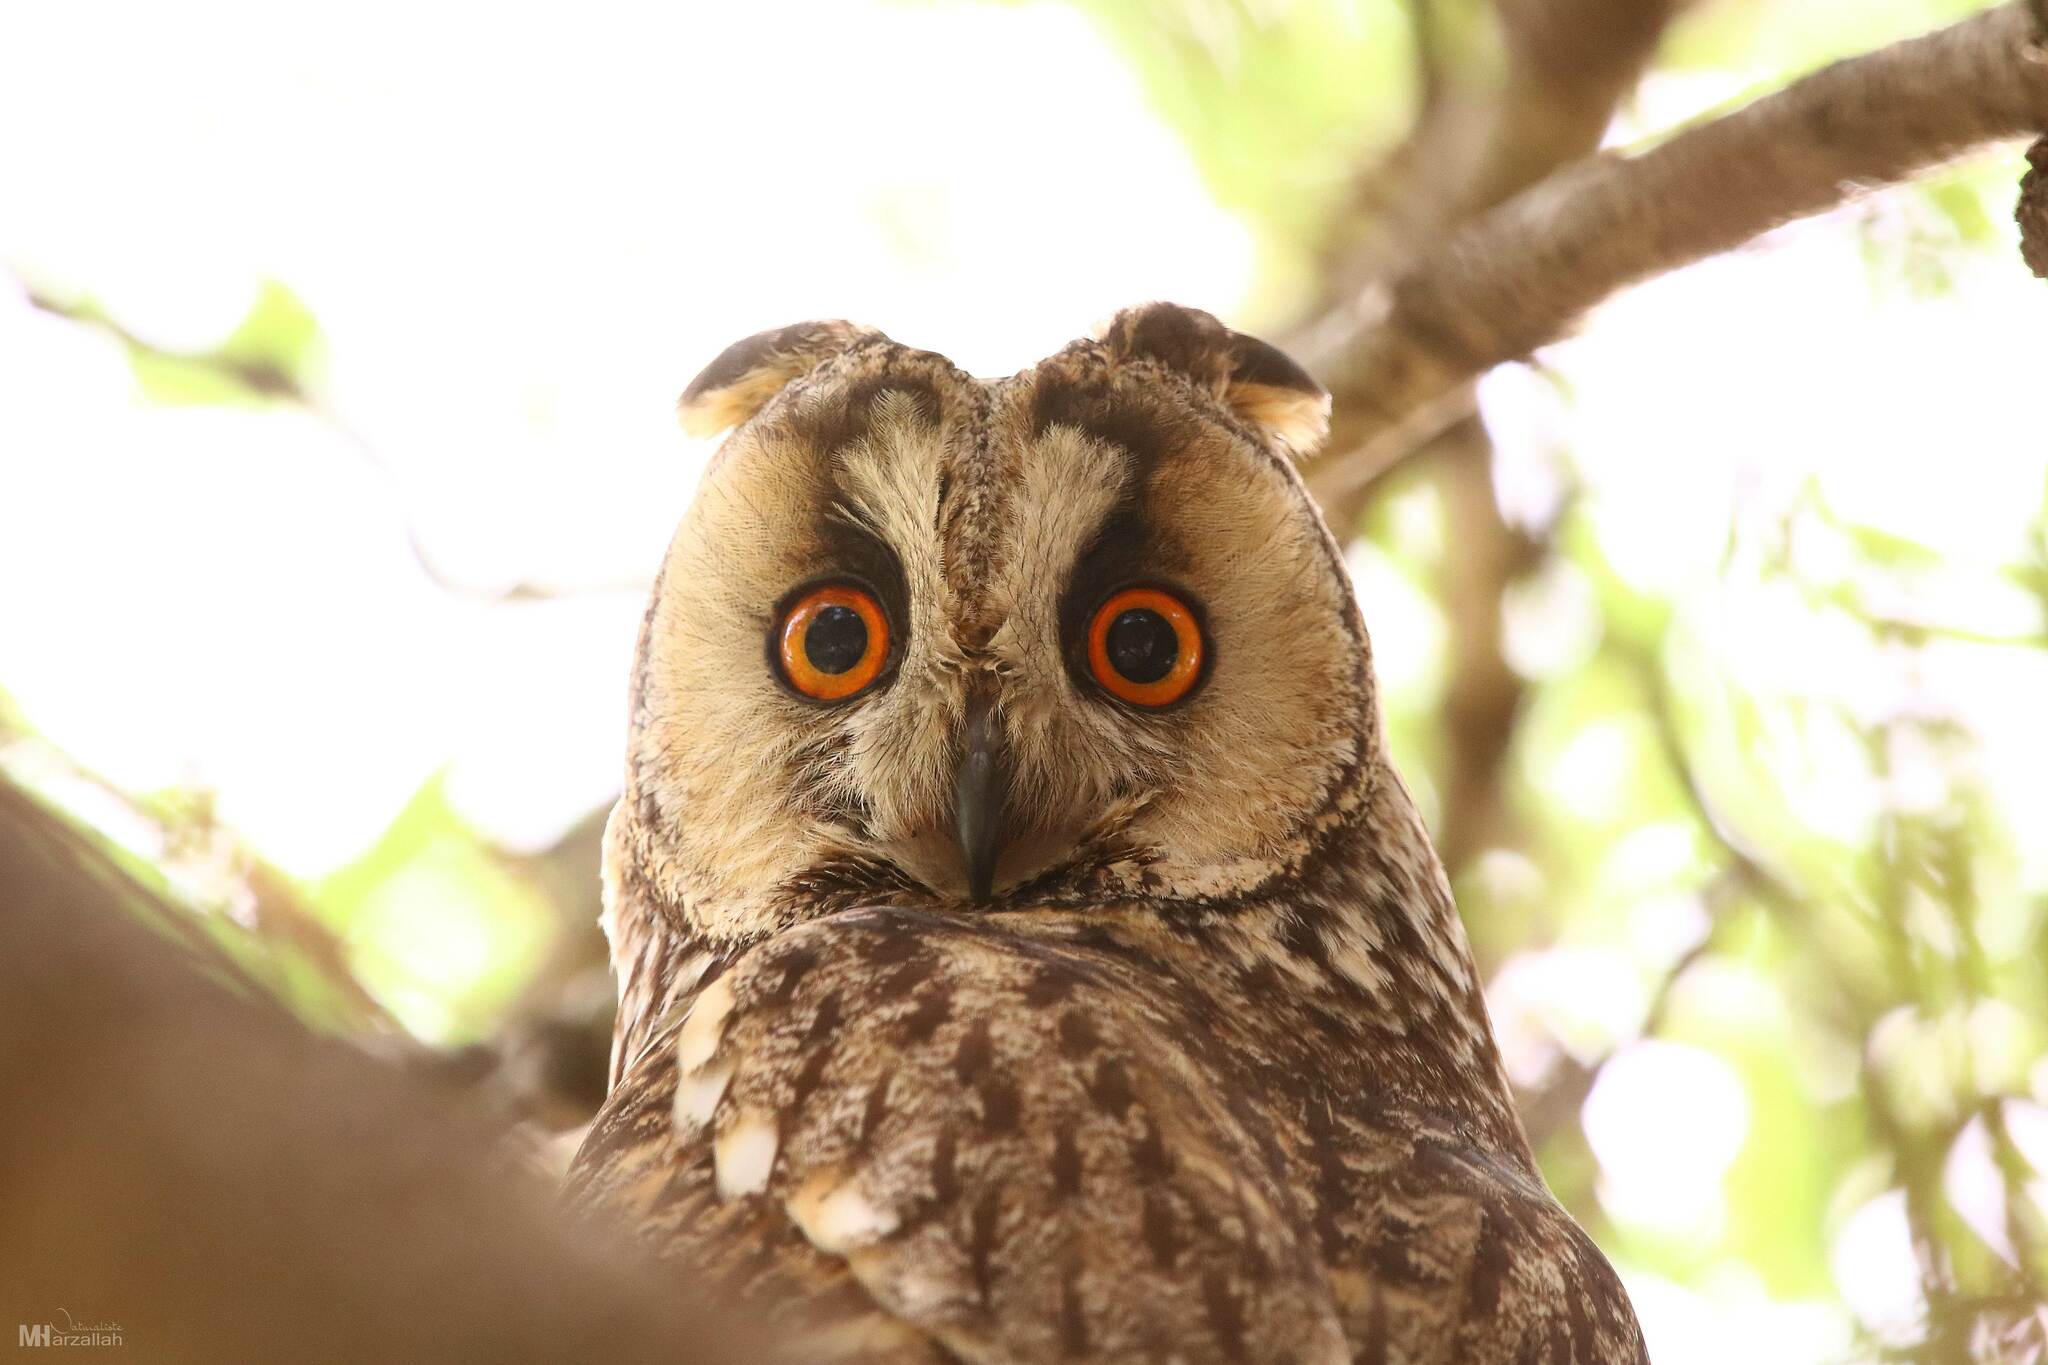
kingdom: Animalia
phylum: Chordata
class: Aves
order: Strigiformes
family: Strigidae
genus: Asio
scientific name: Asio otus
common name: Long-eared owl
